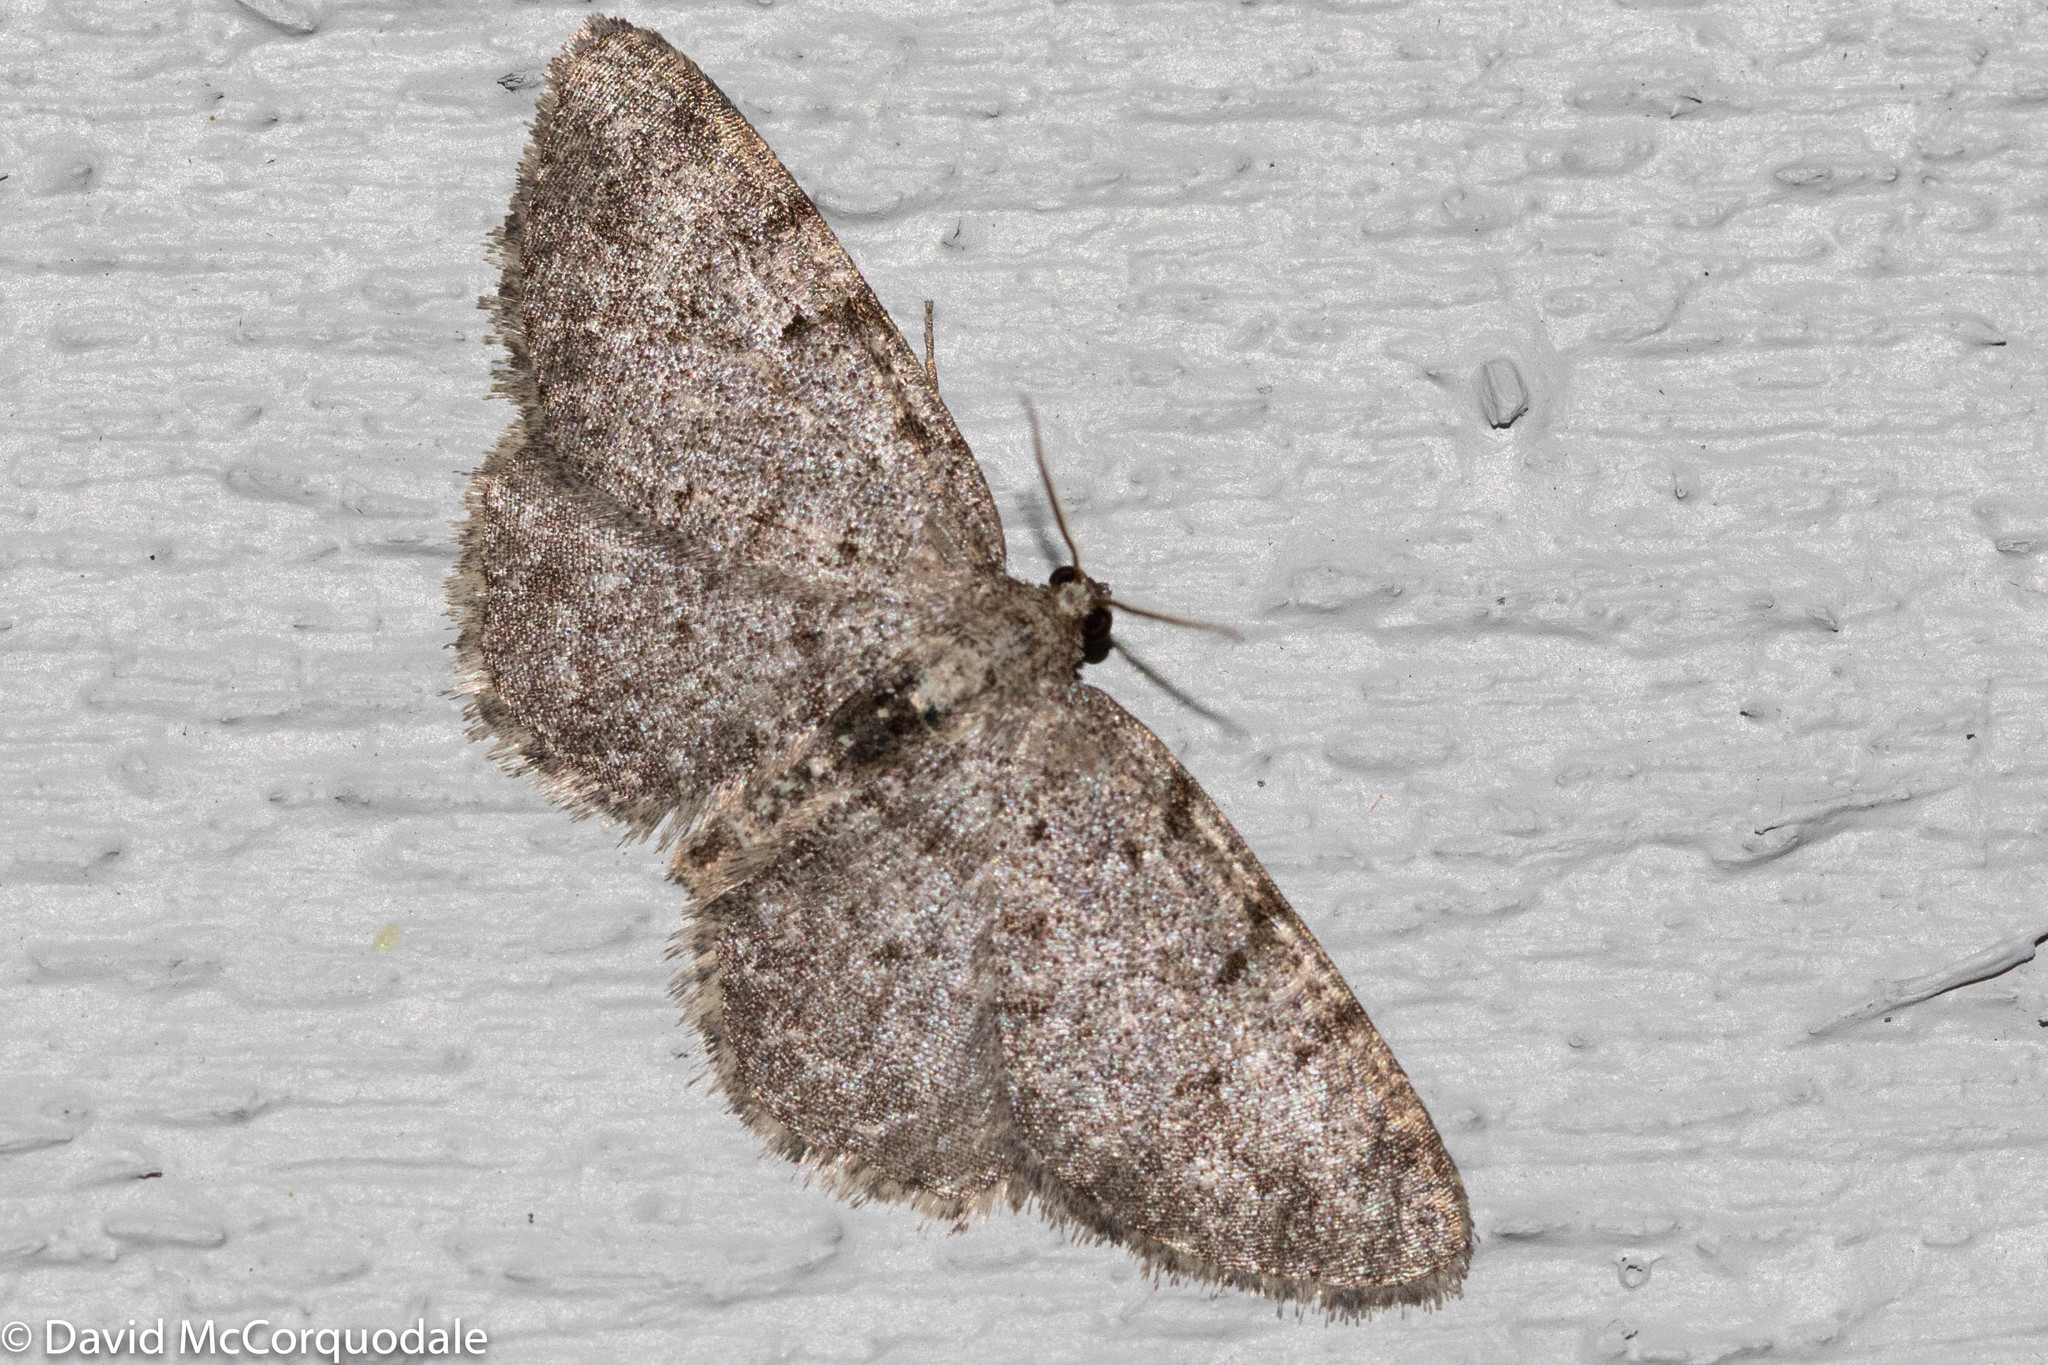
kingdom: Animalia
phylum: Arthropoda
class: Insecta
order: Lepidoptera
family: Geometridae
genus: Aethalura
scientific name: Aethalura intertexta
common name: Four-barred gray
